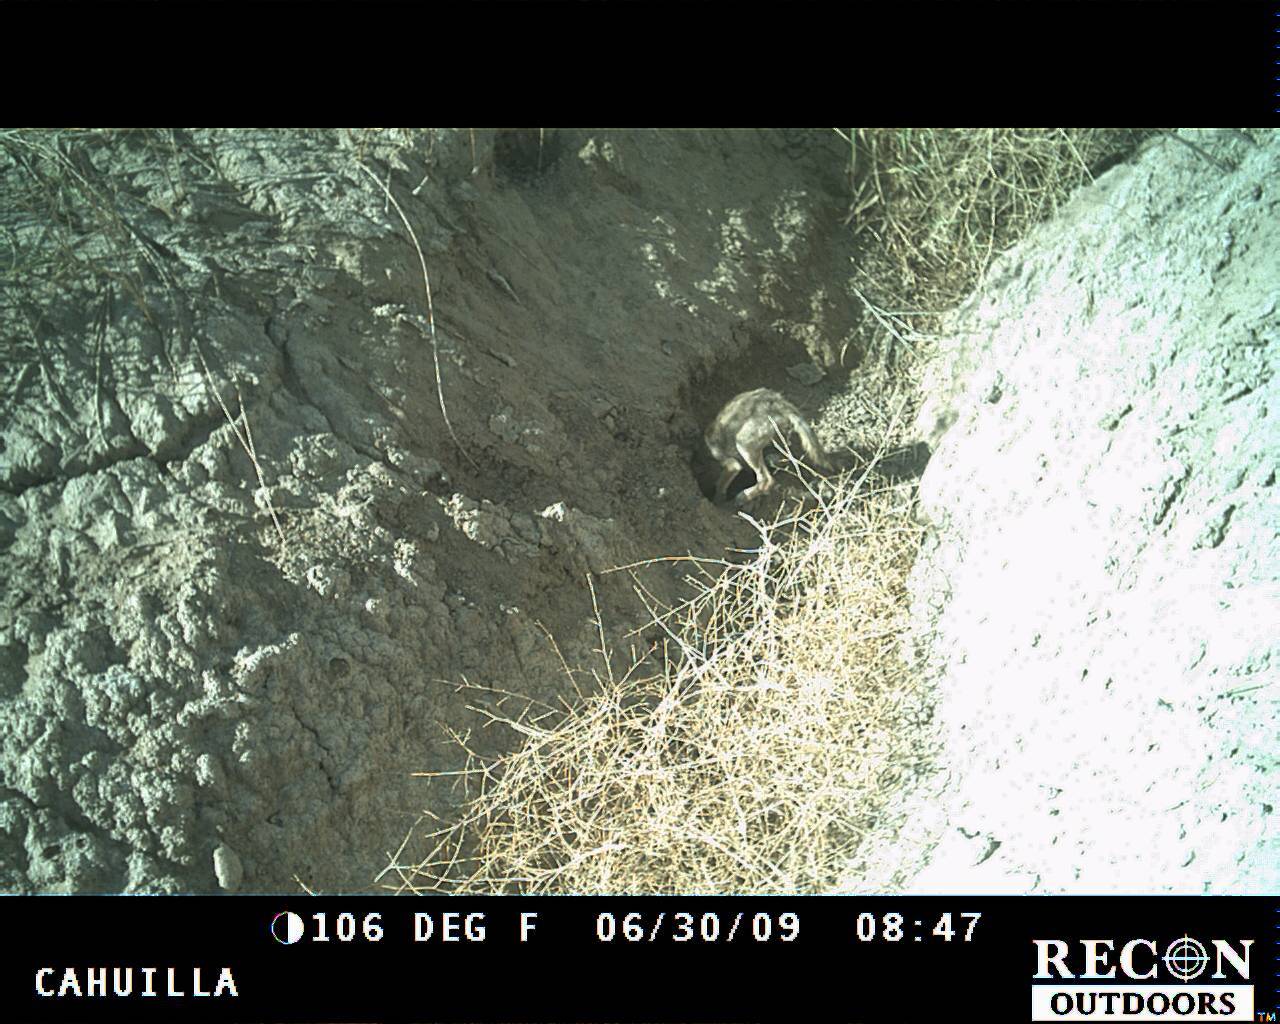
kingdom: Animalia
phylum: Chordata
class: Mammalia
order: Carnivora
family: Canidae
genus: Canis
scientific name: Canis latrans
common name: Coyote
